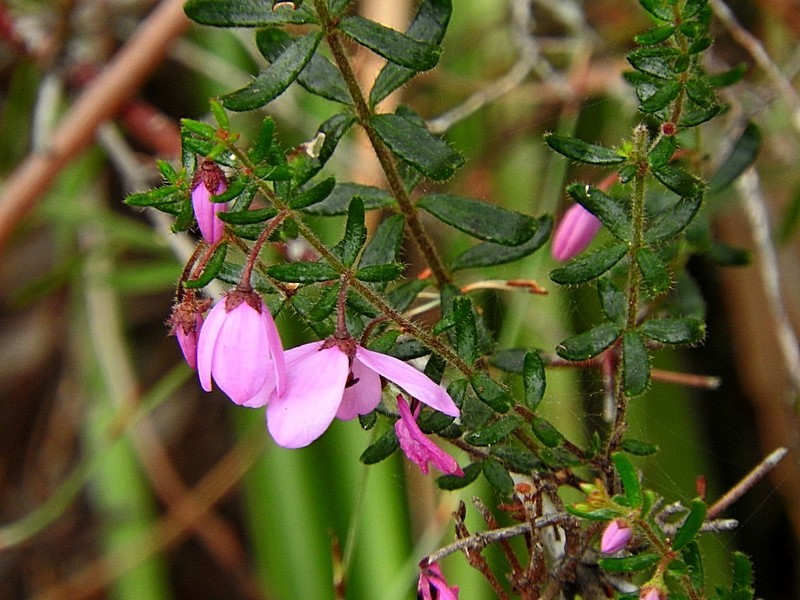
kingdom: Plantae
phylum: Tracheophyta
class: Magnoliopsida
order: Oxalidales
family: Elaeocarpaceae
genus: Tetratheca
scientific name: Tetratheca thymifolia
